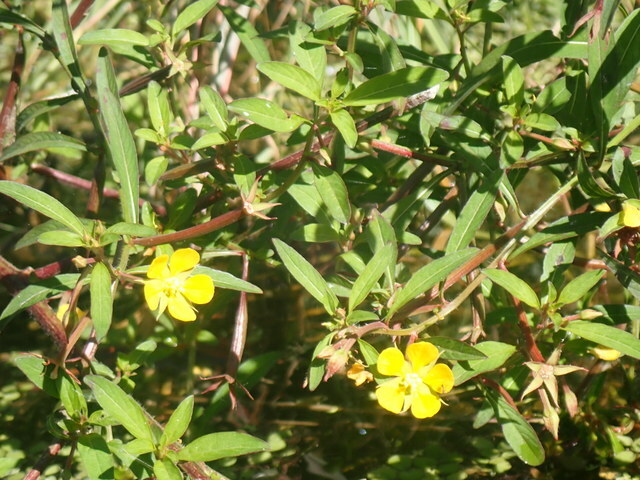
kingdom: Plantae
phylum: Tracheophyta
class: Magnoliopsida
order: Myrtales
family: Onagraceae
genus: Ludwigia
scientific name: Ludwigia leptocarpa
